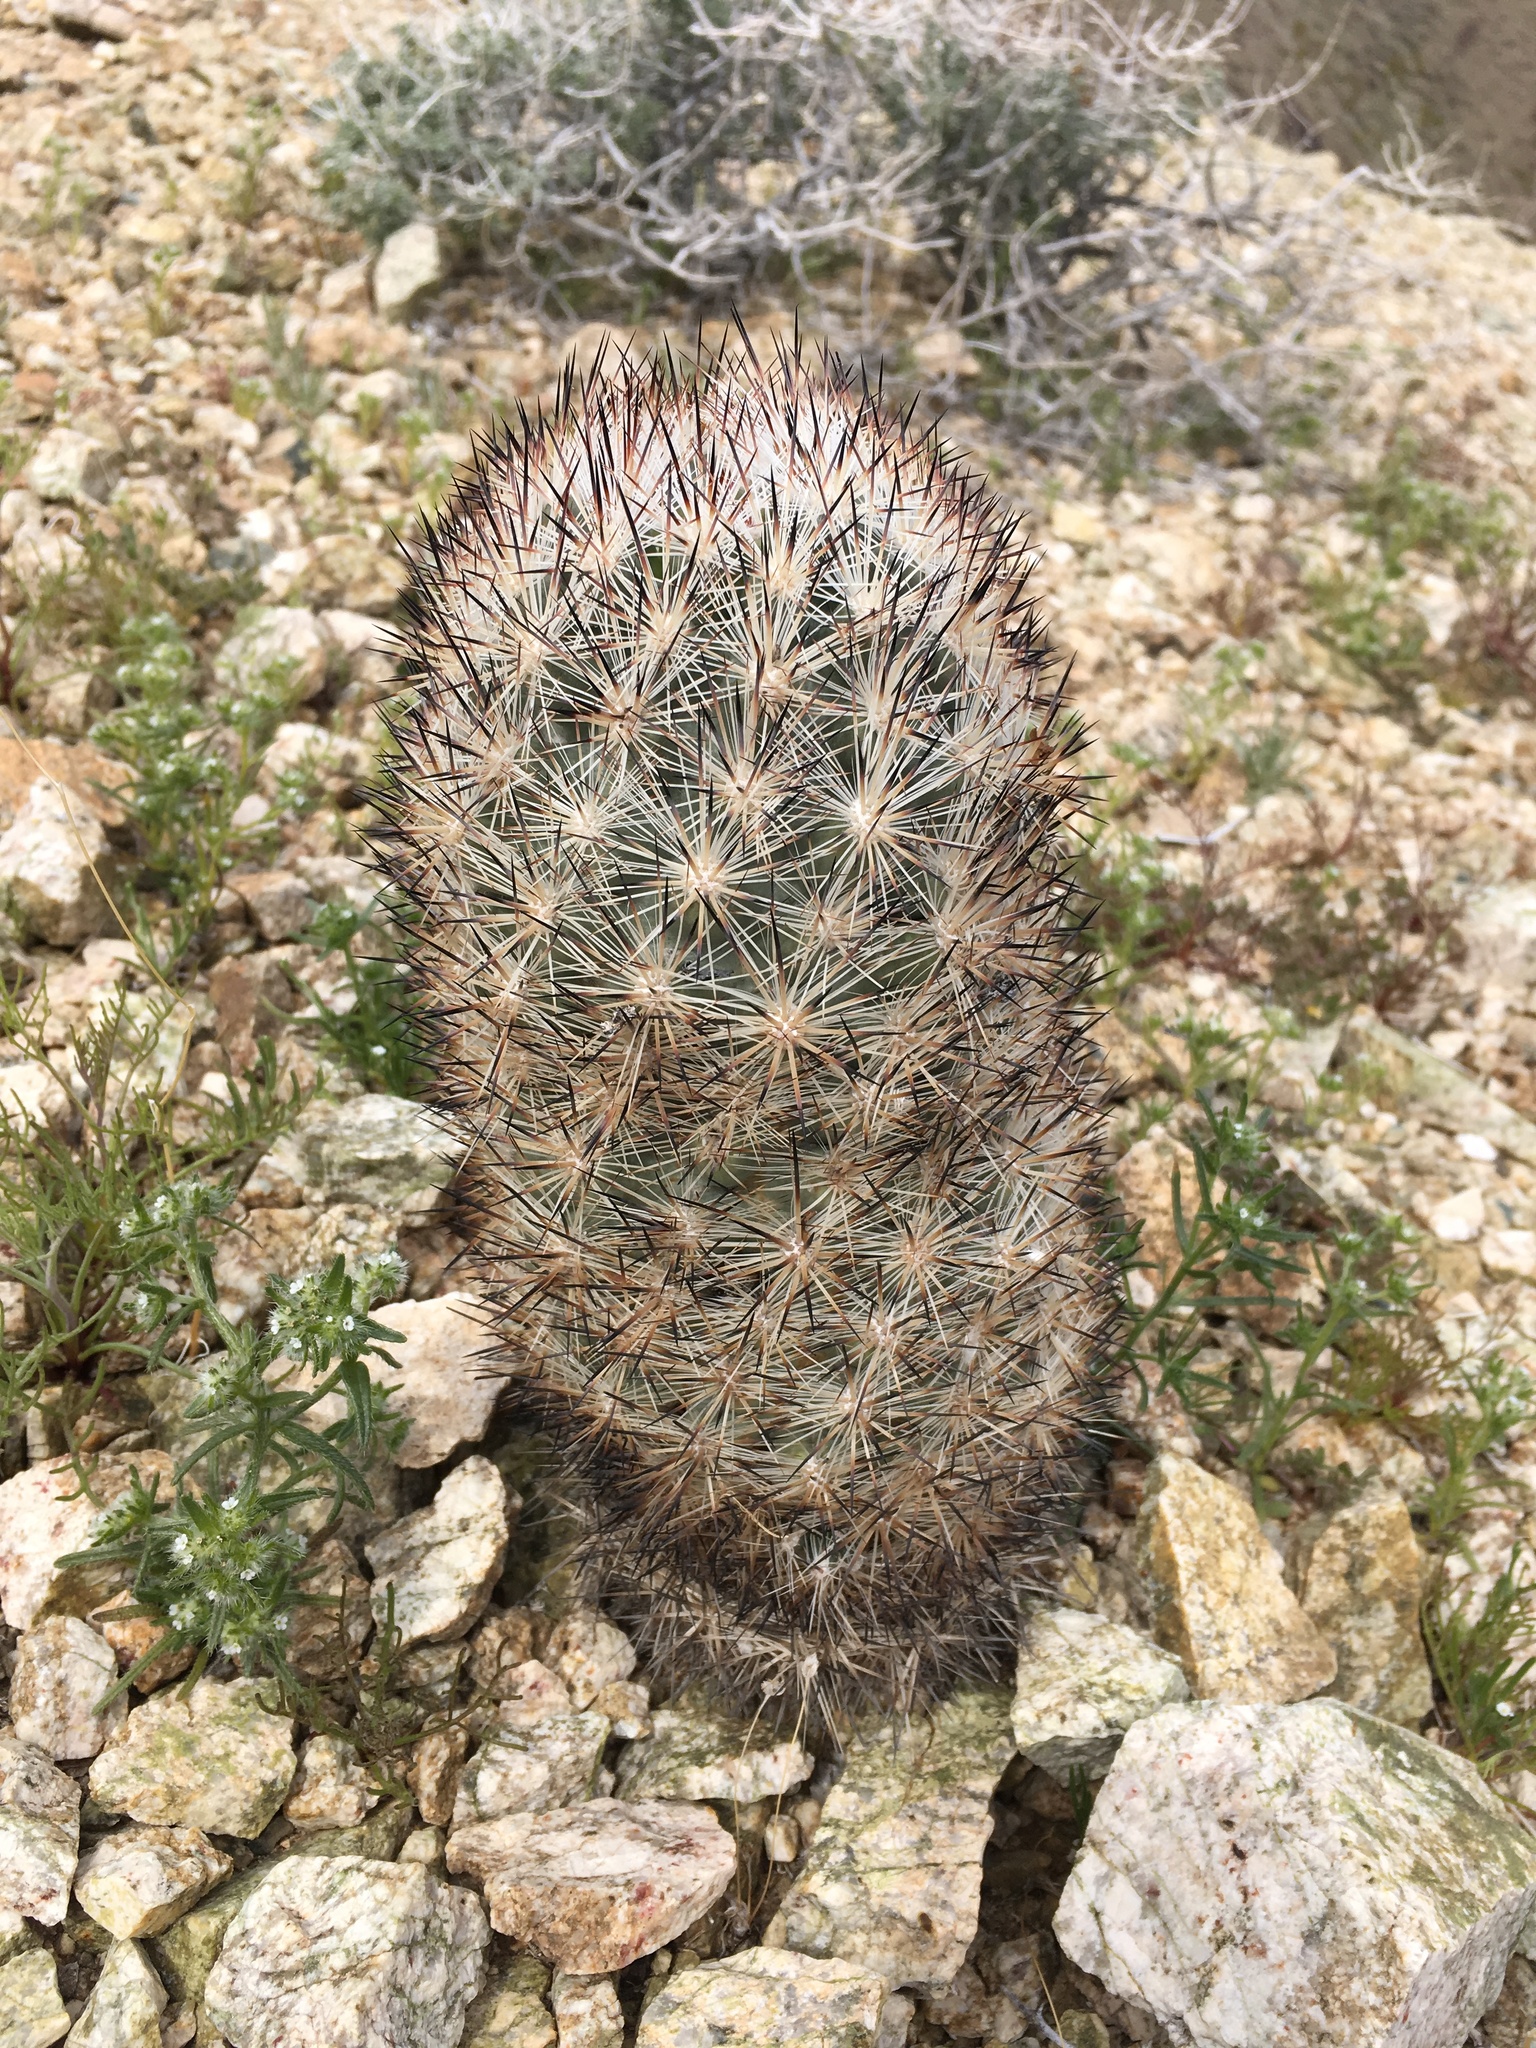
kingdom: Plantae
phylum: Tracheophyta
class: Magnoliopsida
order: Caryophyllales
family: Cactaceae
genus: Pelecyphora
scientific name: Pelecyphora alversonii
